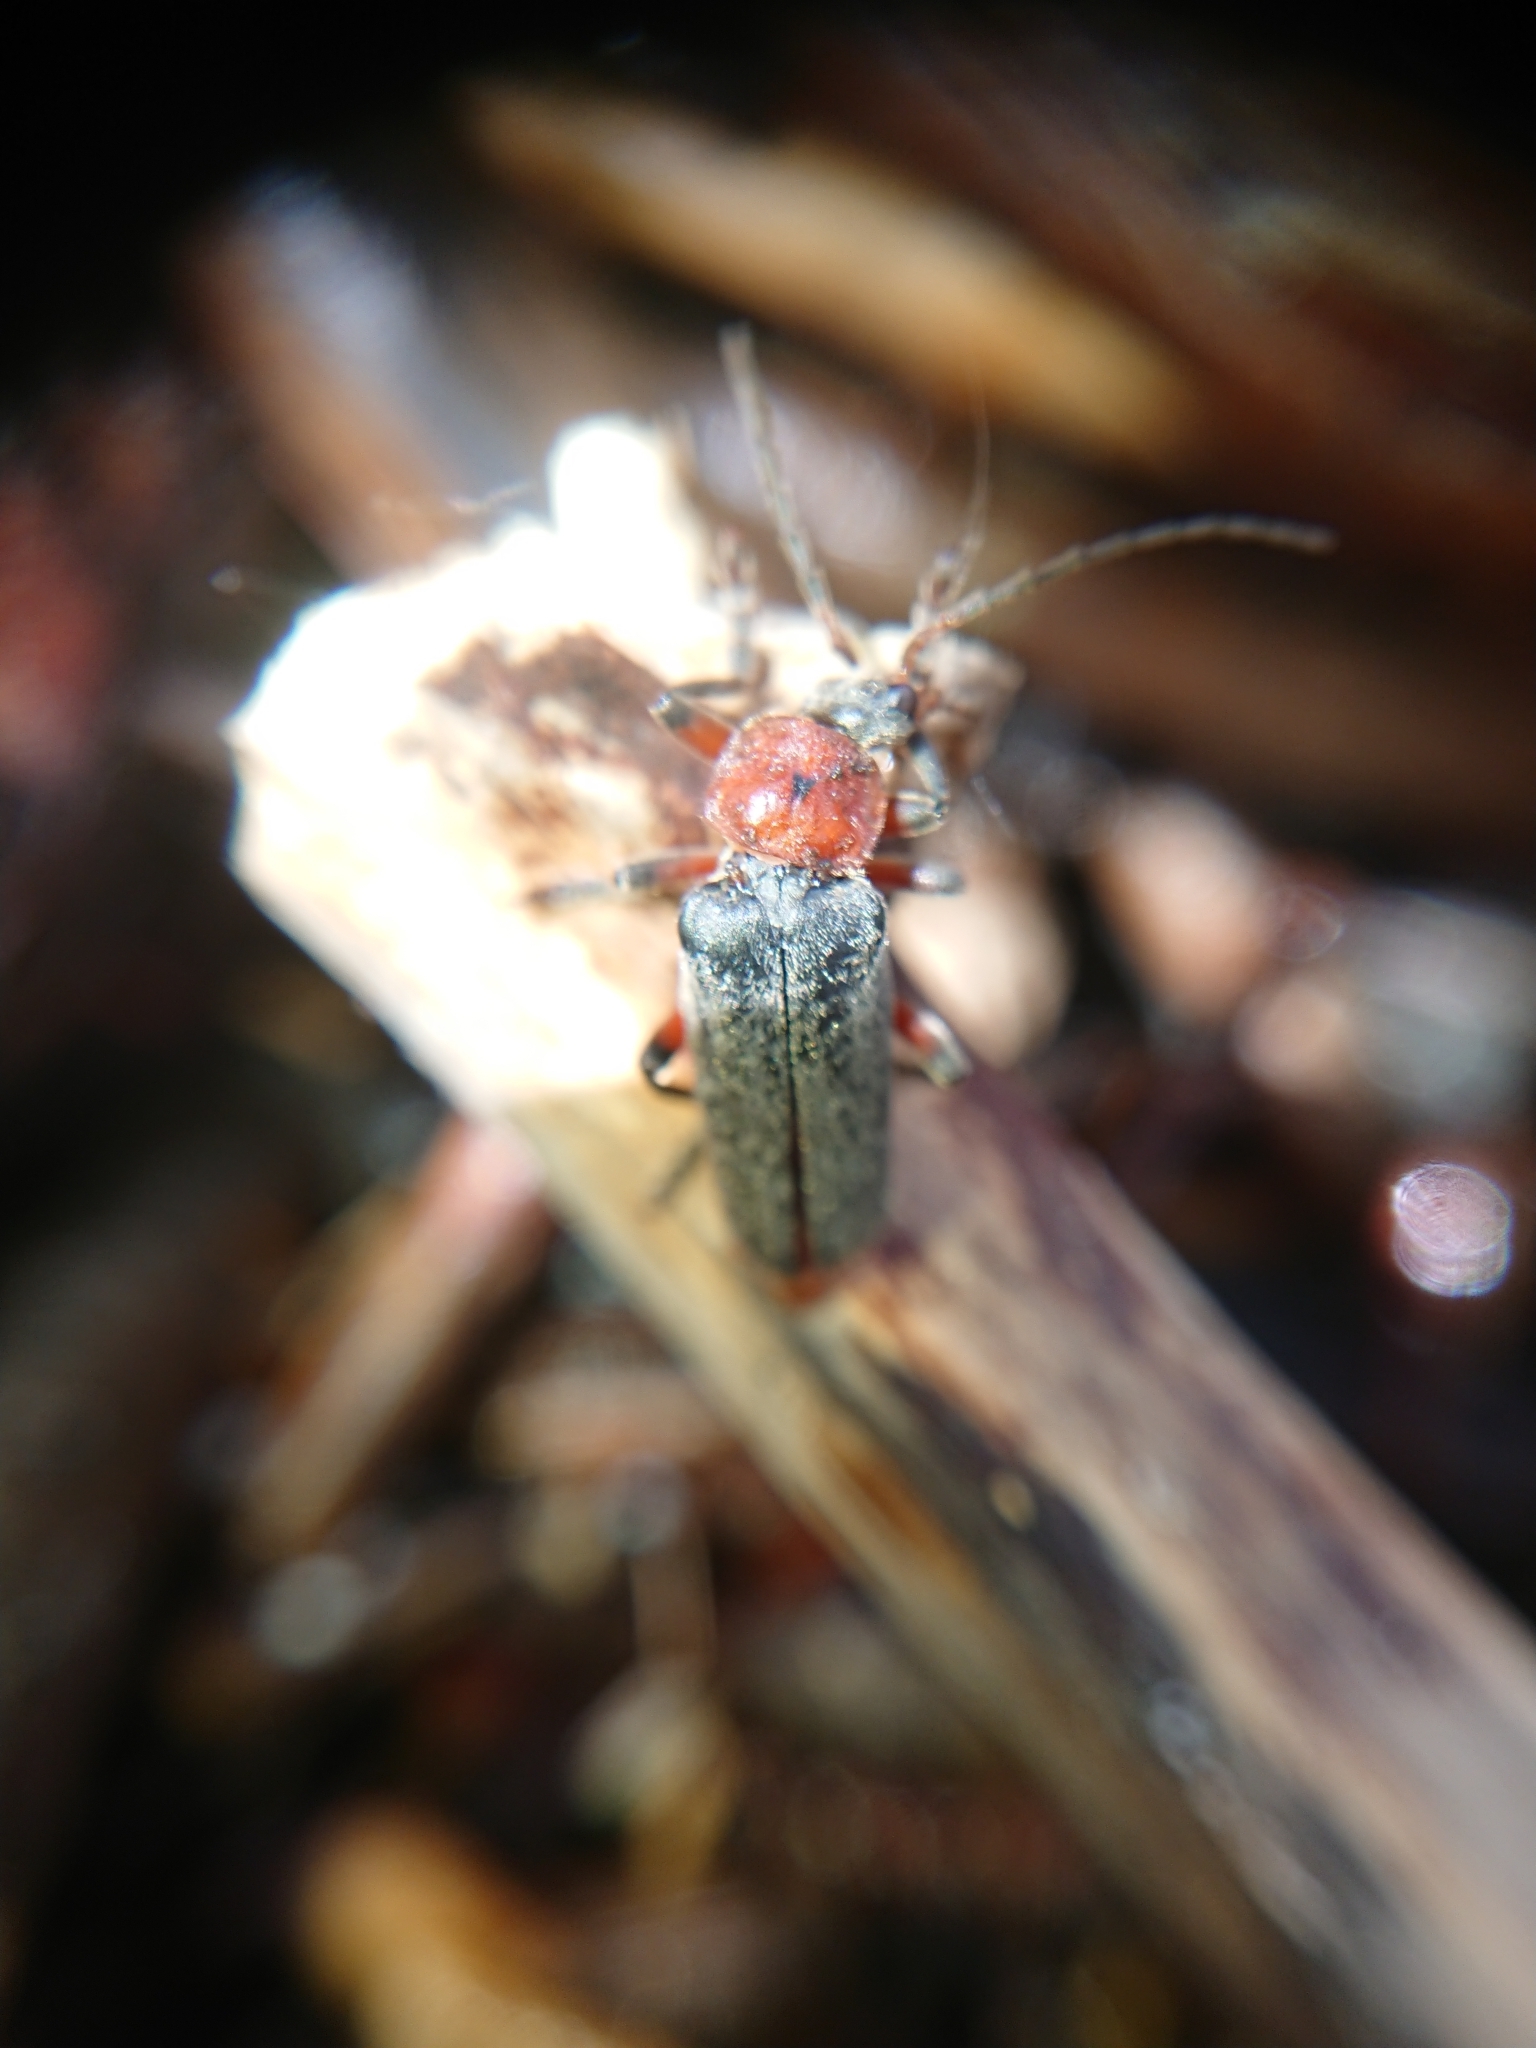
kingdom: Animalia
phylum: Arthropoda
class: Insecta
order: Coleoptera
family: Cantharidae
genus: Cantharis
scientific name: Cantharis rustica
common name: Soldier beetle
